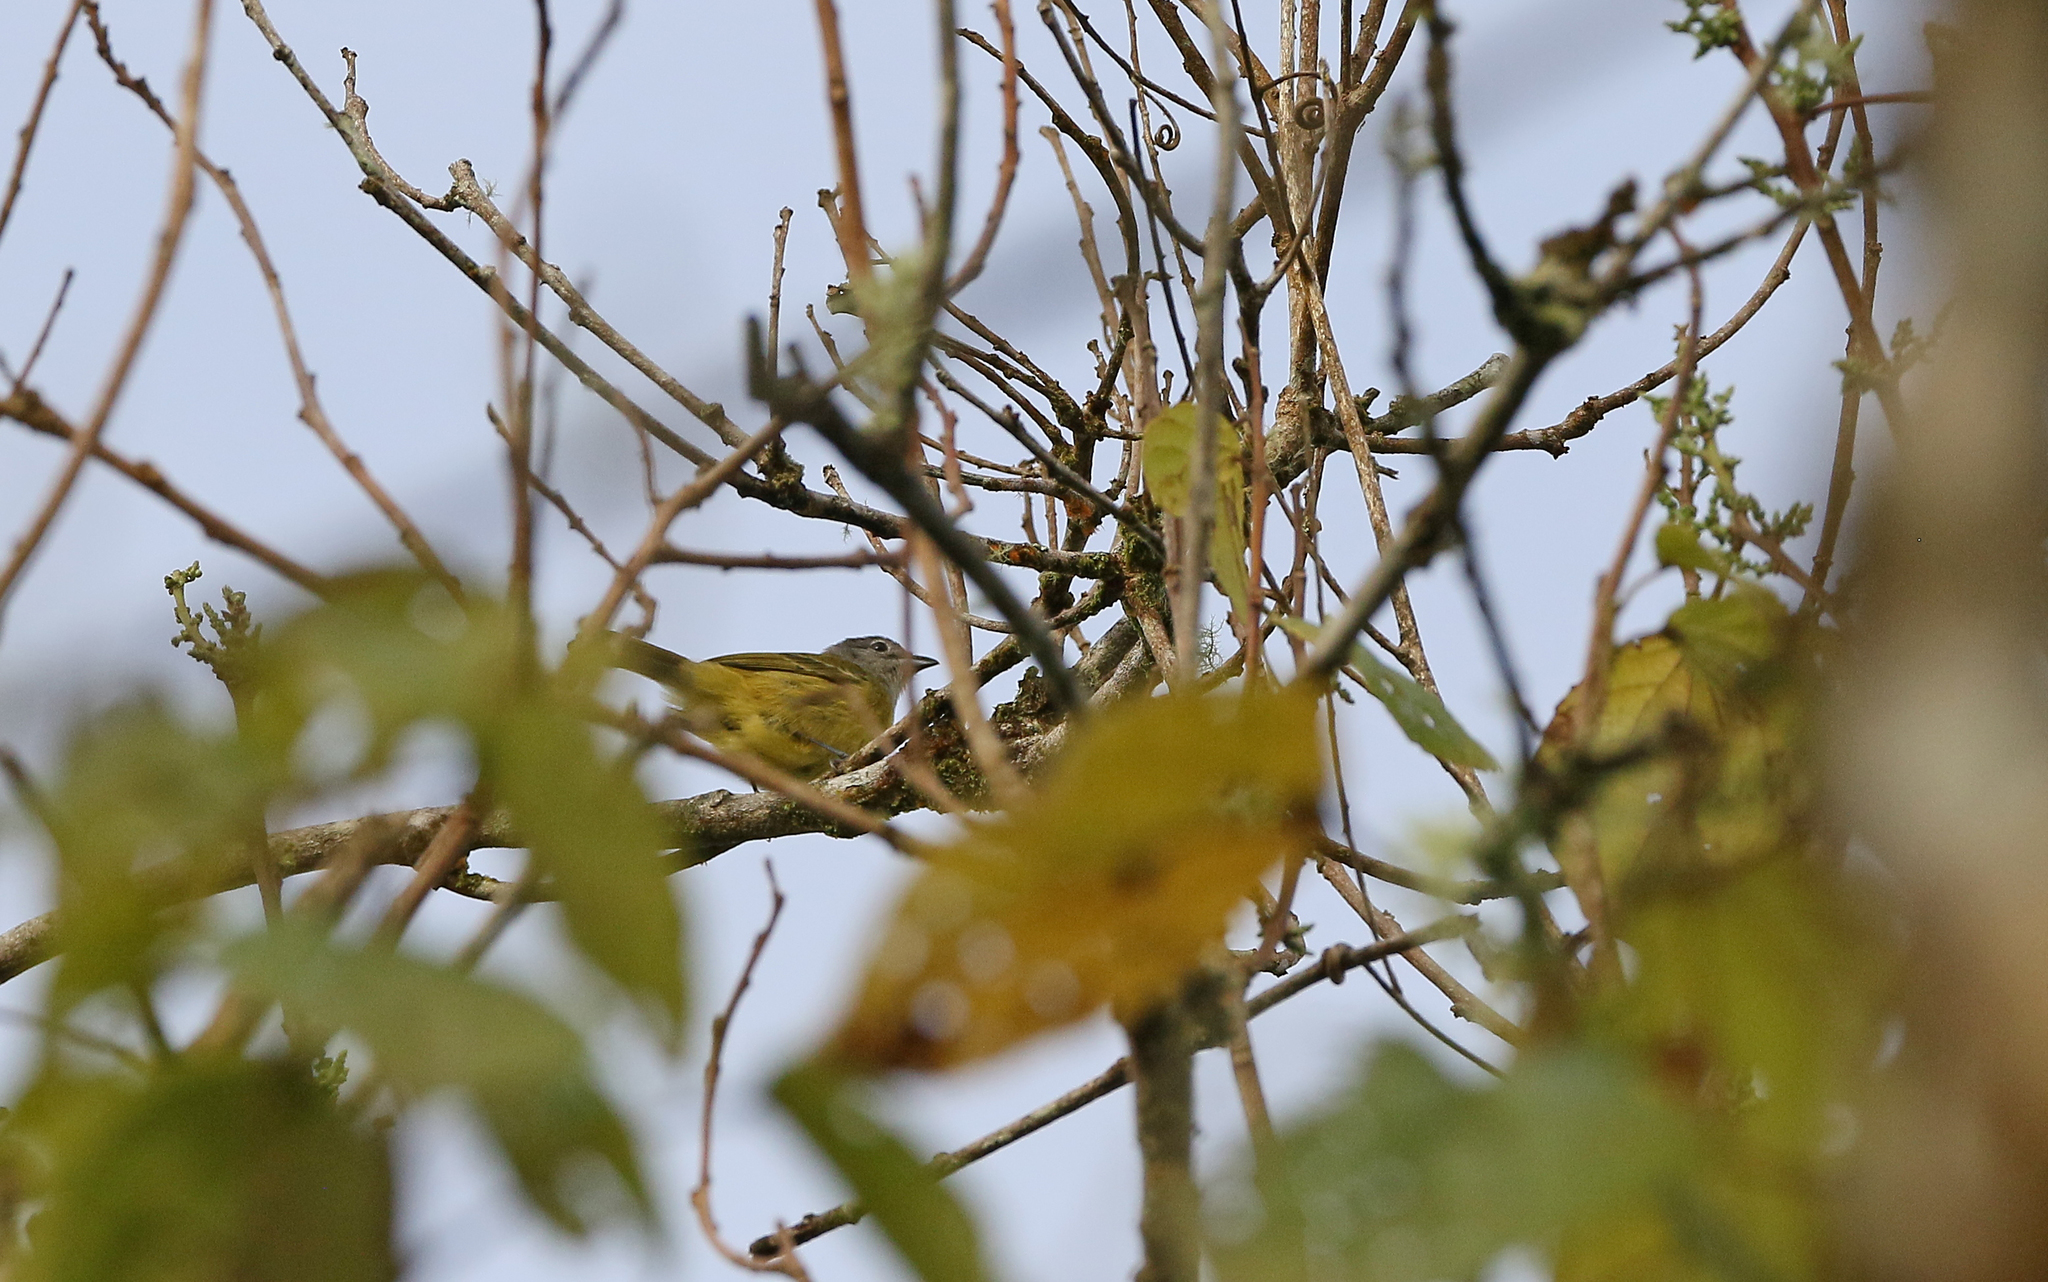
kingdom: Animalia
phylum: Chordata
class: Aves
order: Passeriformes
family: Thraupidae
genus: Loriotus
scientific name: Loriotus luctuosus
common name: White-shouldered tanager
